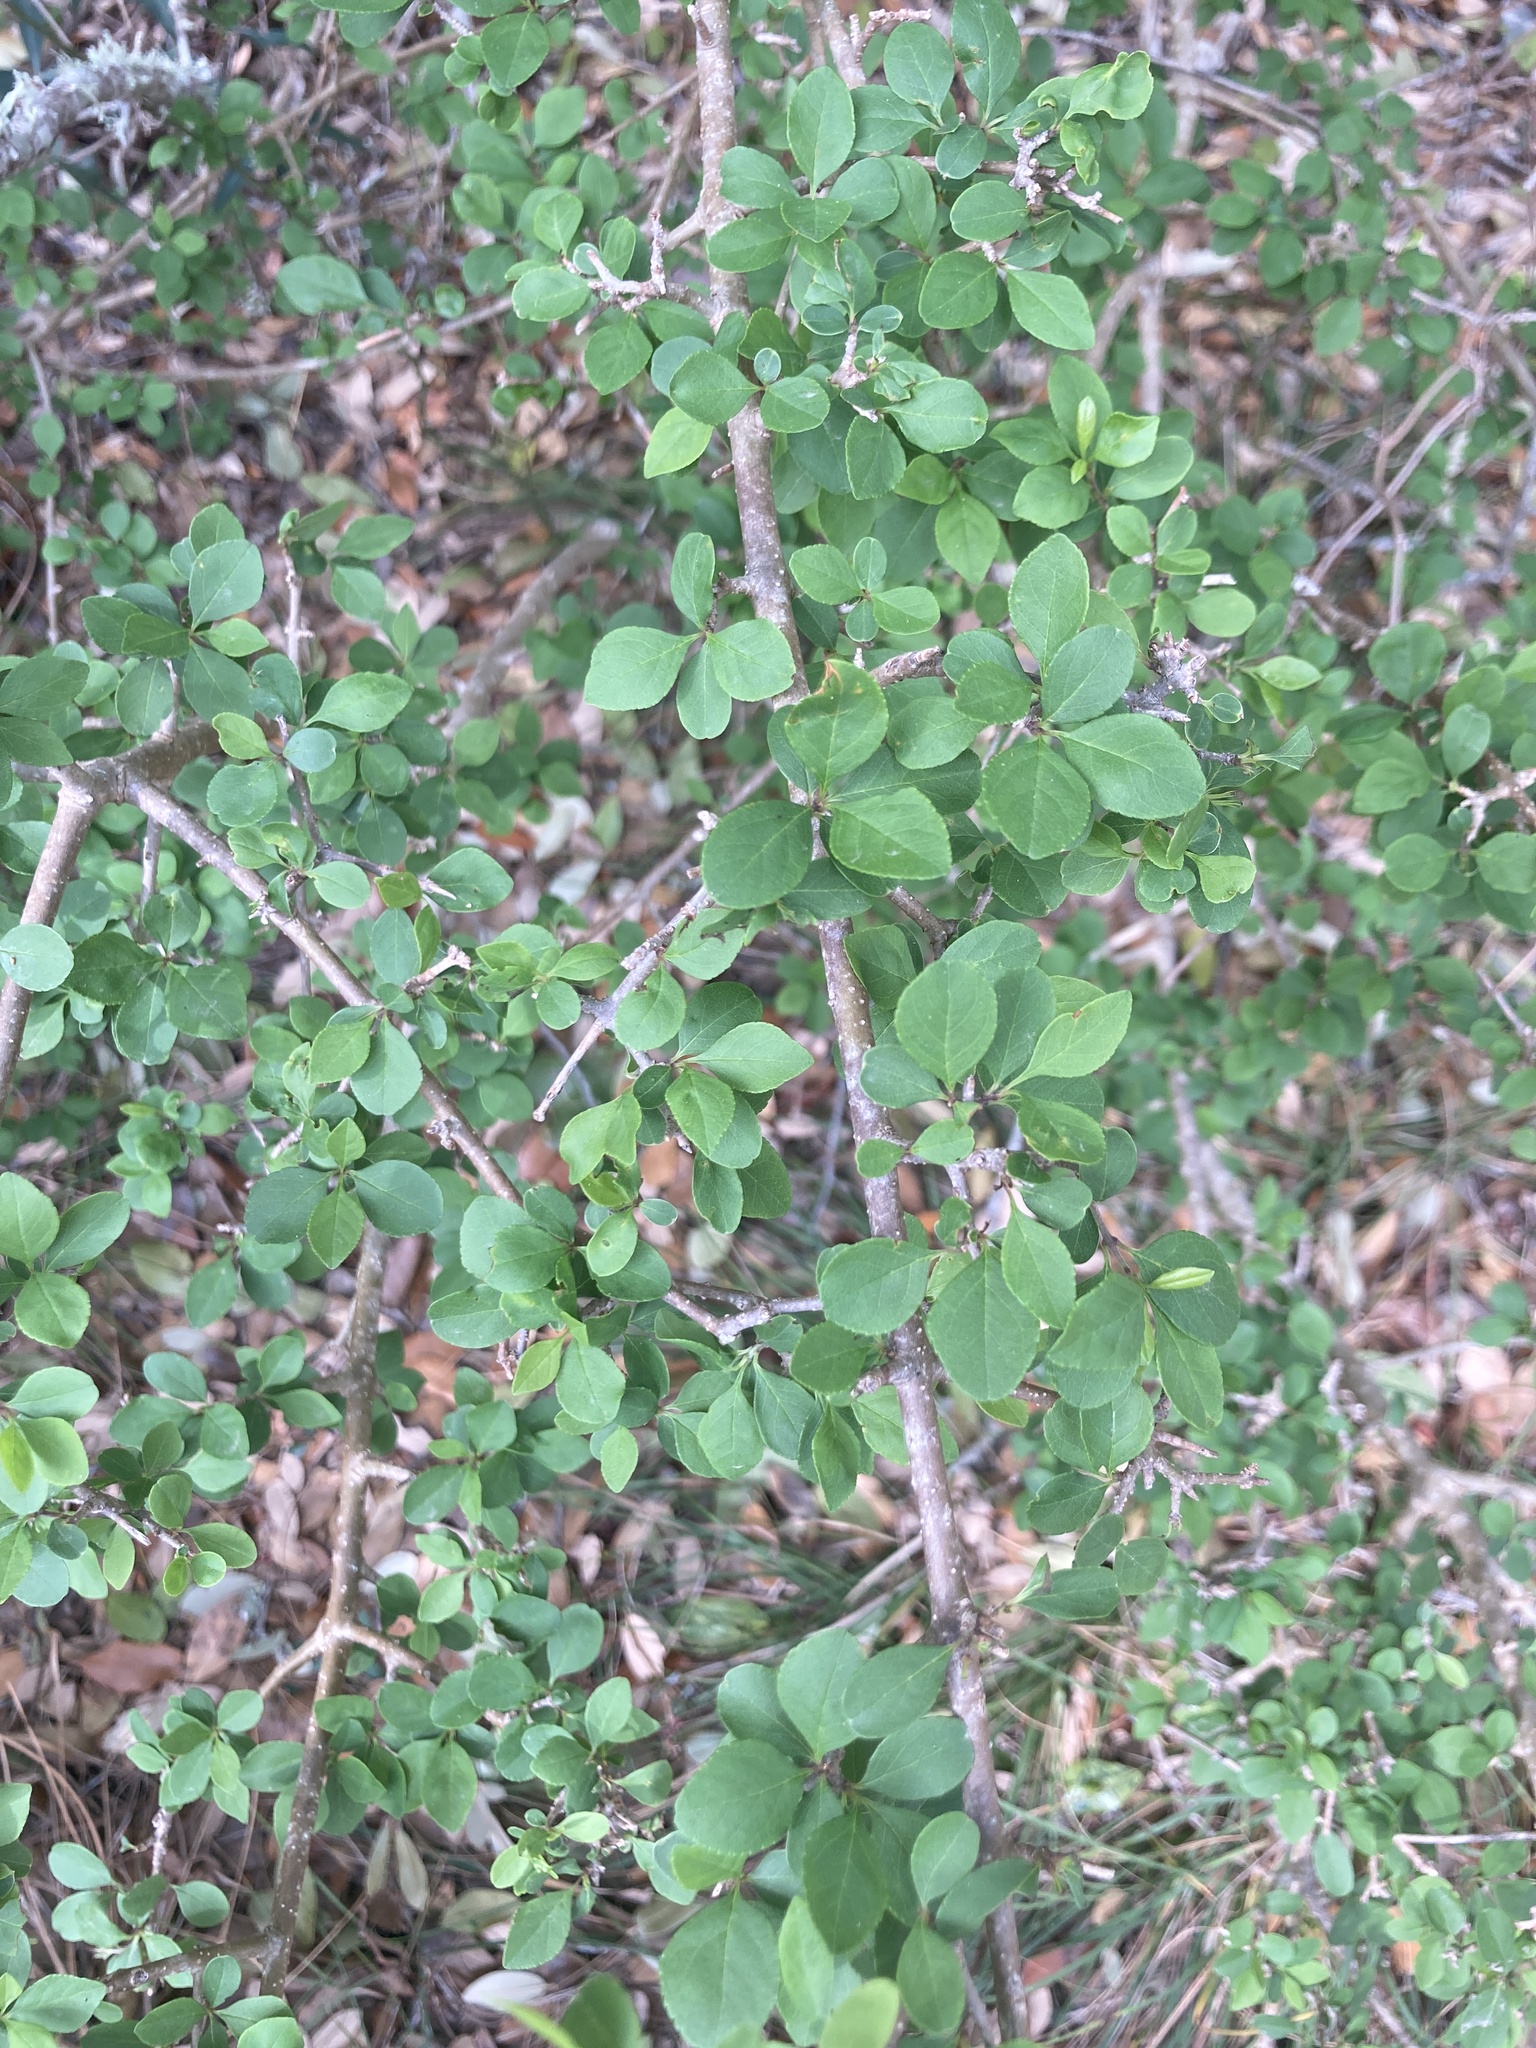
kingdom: Plantae
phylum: Tracheophyta
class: Magnoliopsida
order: Lamiales
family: Oleaceae
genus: Forestiera
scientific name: Forestiera pubescens
